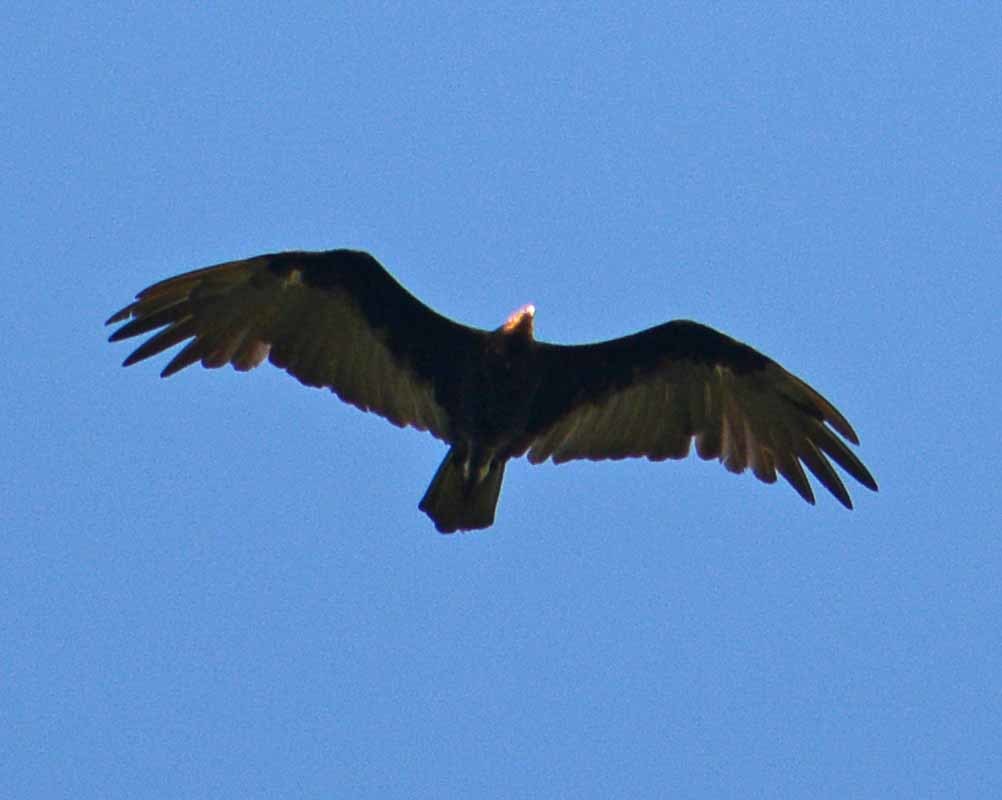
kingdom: Animalia
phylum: Chordata
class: Aves
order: Accipitriformes
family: Cathartidae
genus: Cathartes
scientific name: Cathartes aura
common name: Turkey vulture
